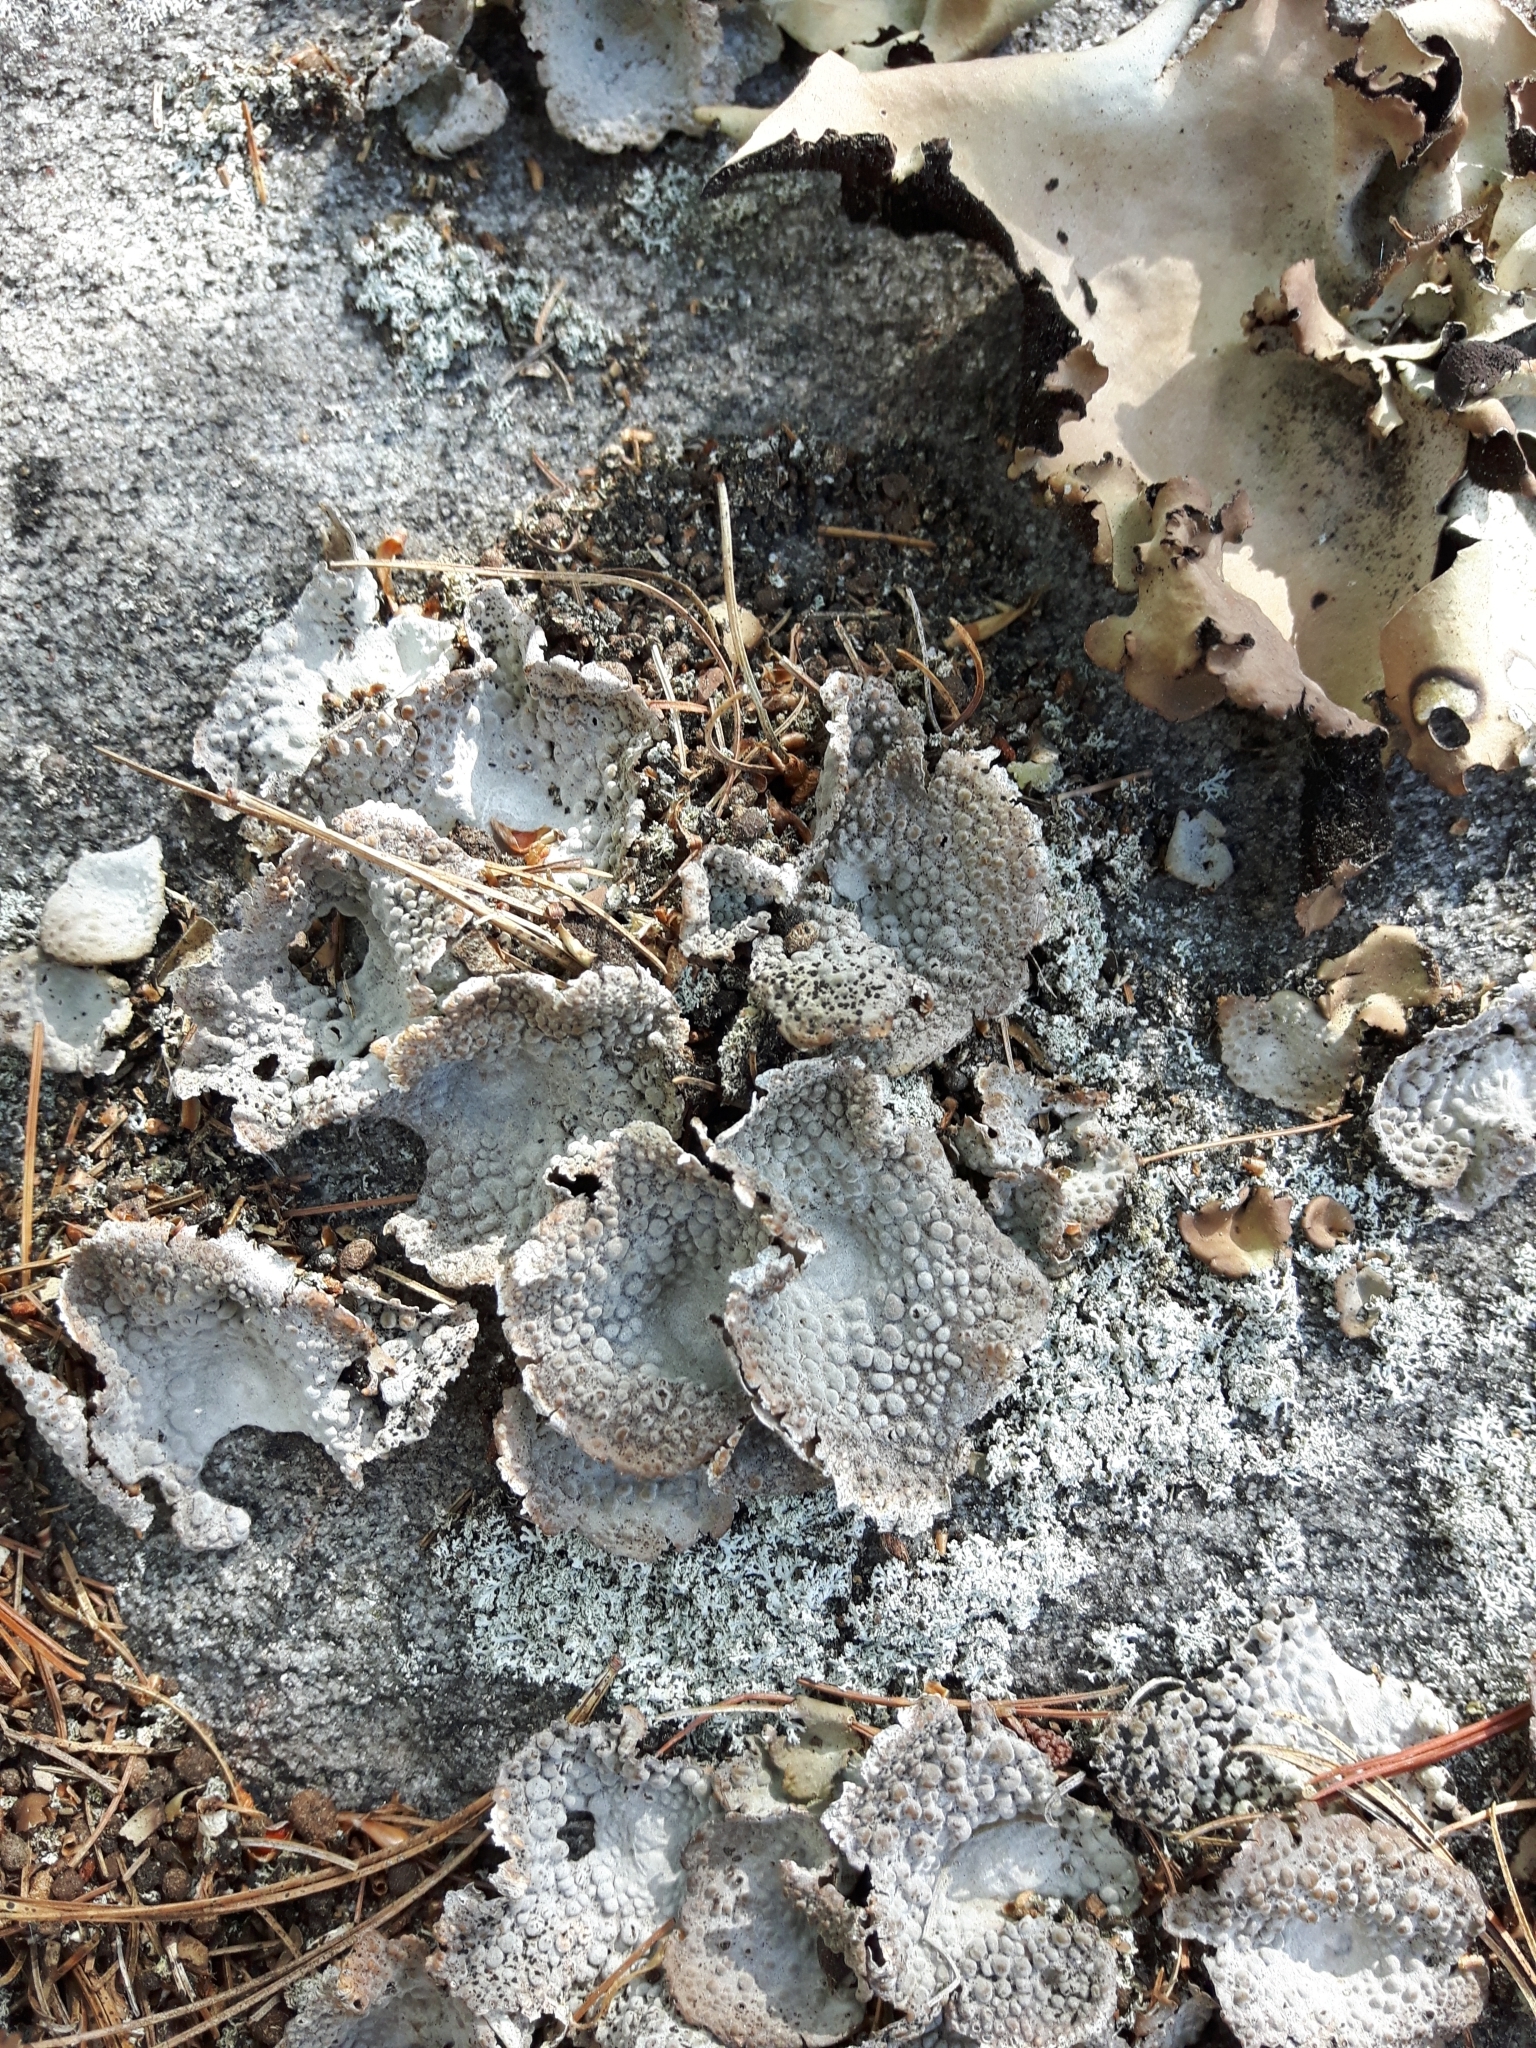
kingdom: Fungi
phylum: Ascomycota
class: Lecanoromycetes
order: Umbilicariales
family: Umbilicariaceae
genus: Lasallia
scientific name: Lasallia papulosa
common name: Common toadskin lichen
